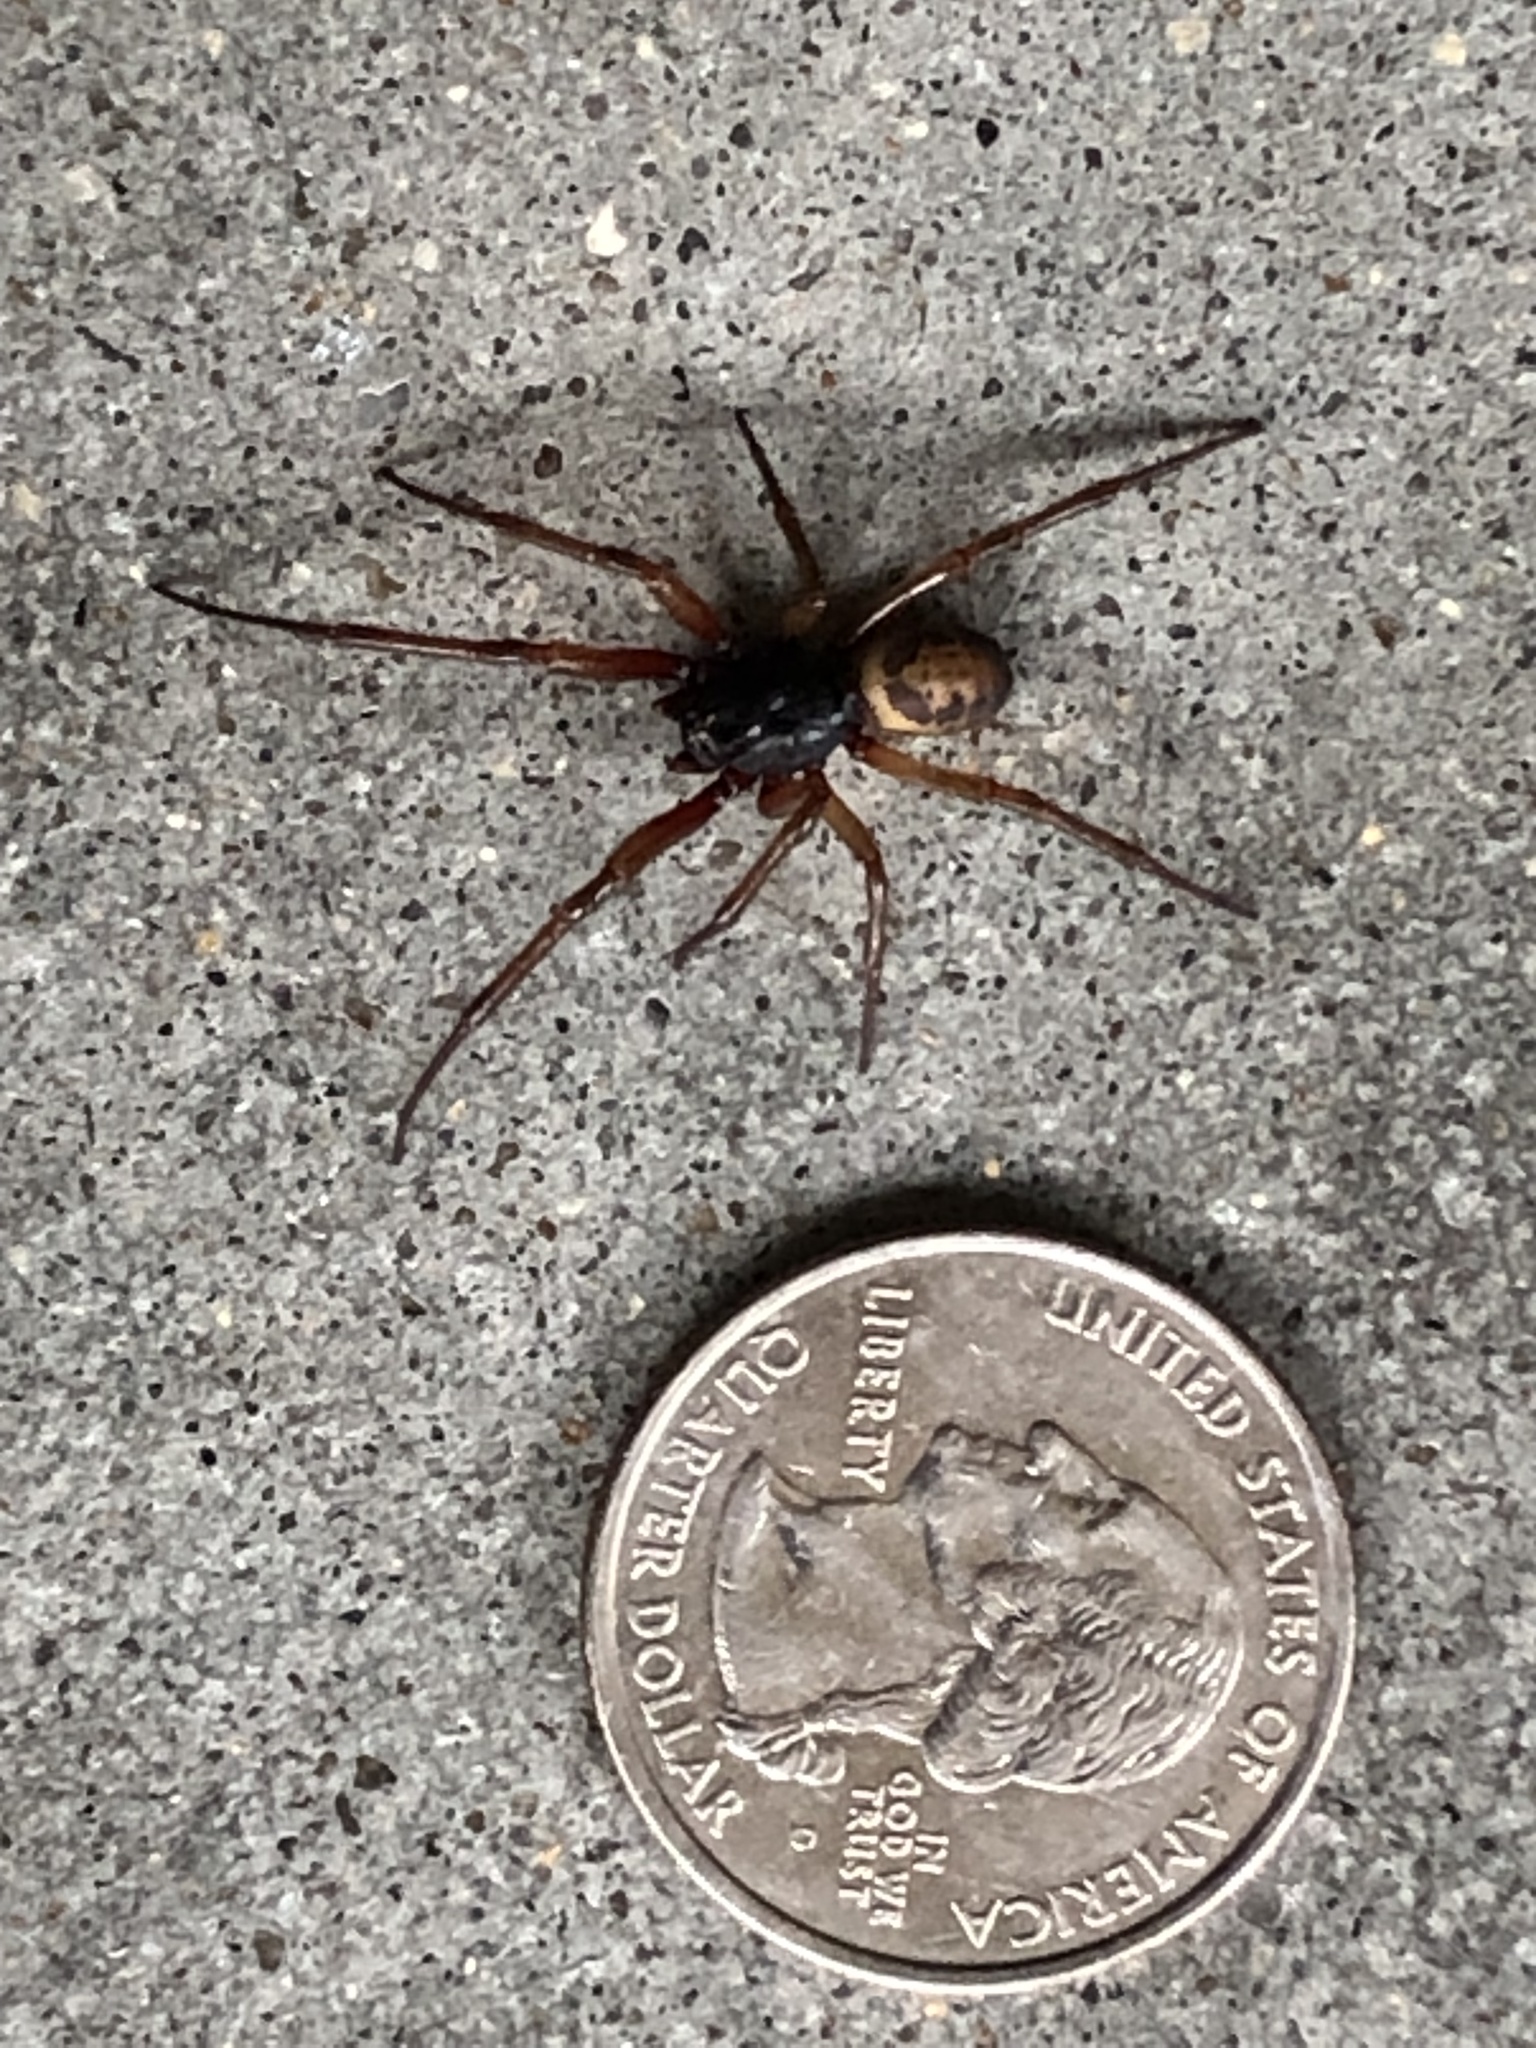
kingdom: Animalia
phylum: Arthropoda
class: Arachnida
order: Araneae
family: Theridiidae
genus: Steatoda
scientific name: Steatoda nobilis
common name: Cobweb weaver
